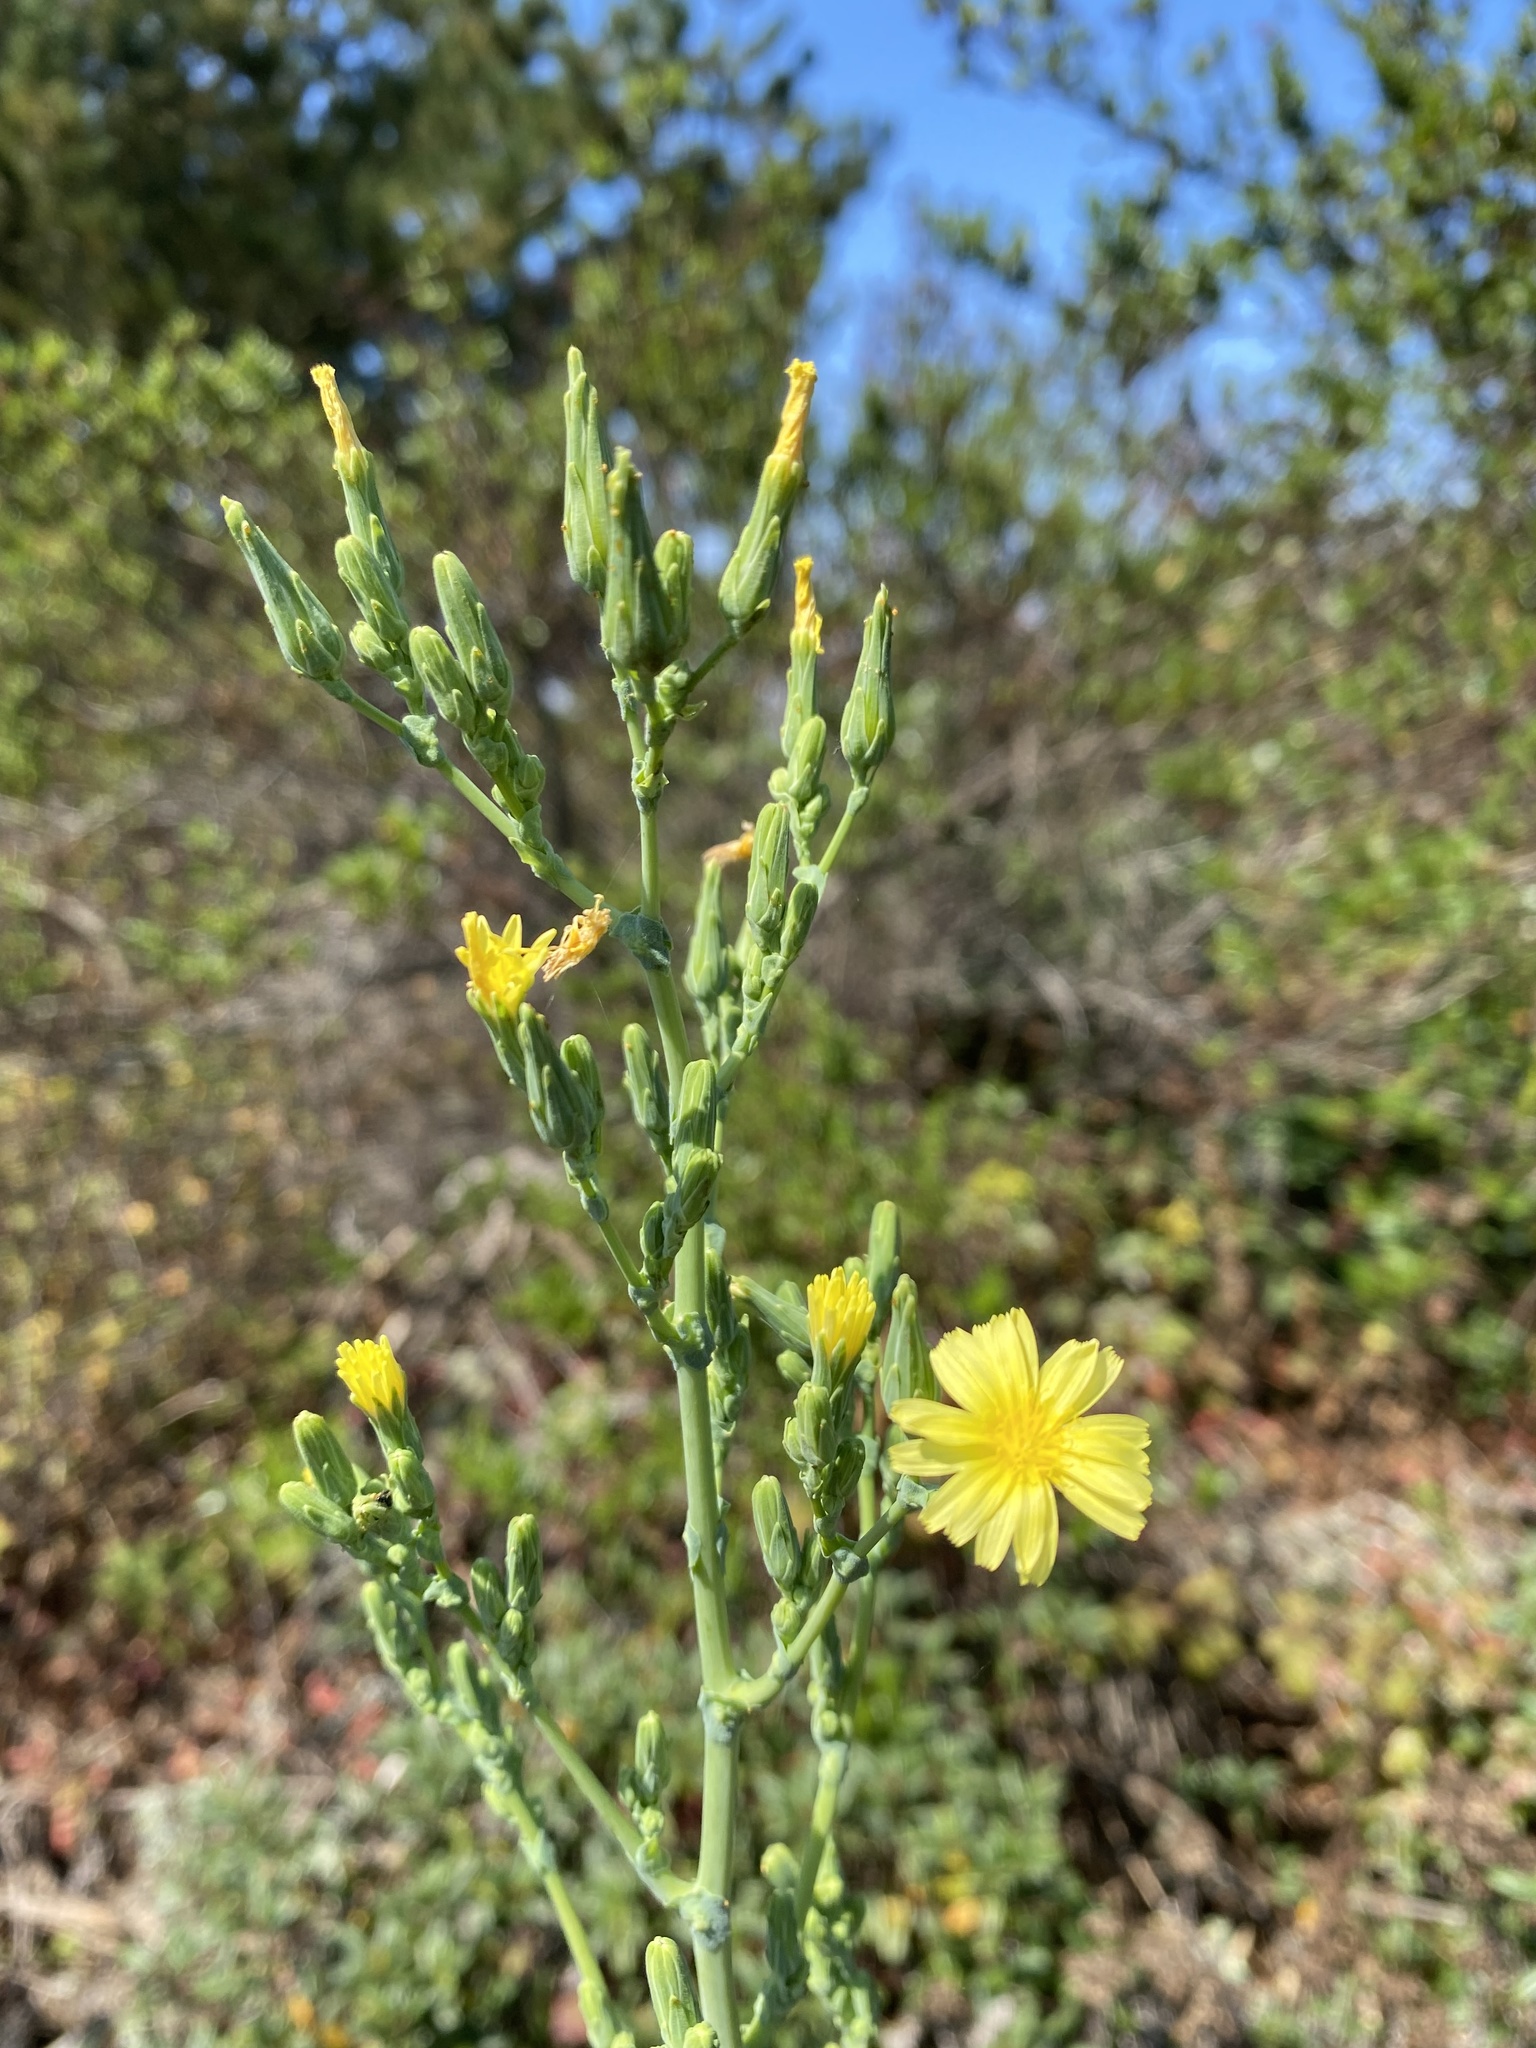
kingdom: Plantae
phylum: Tracheophyta
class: Magnoliopsida
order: Asterales
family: Asteraceae
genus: Lactuca
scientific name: Lactuca virosa
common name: Great lettuce
